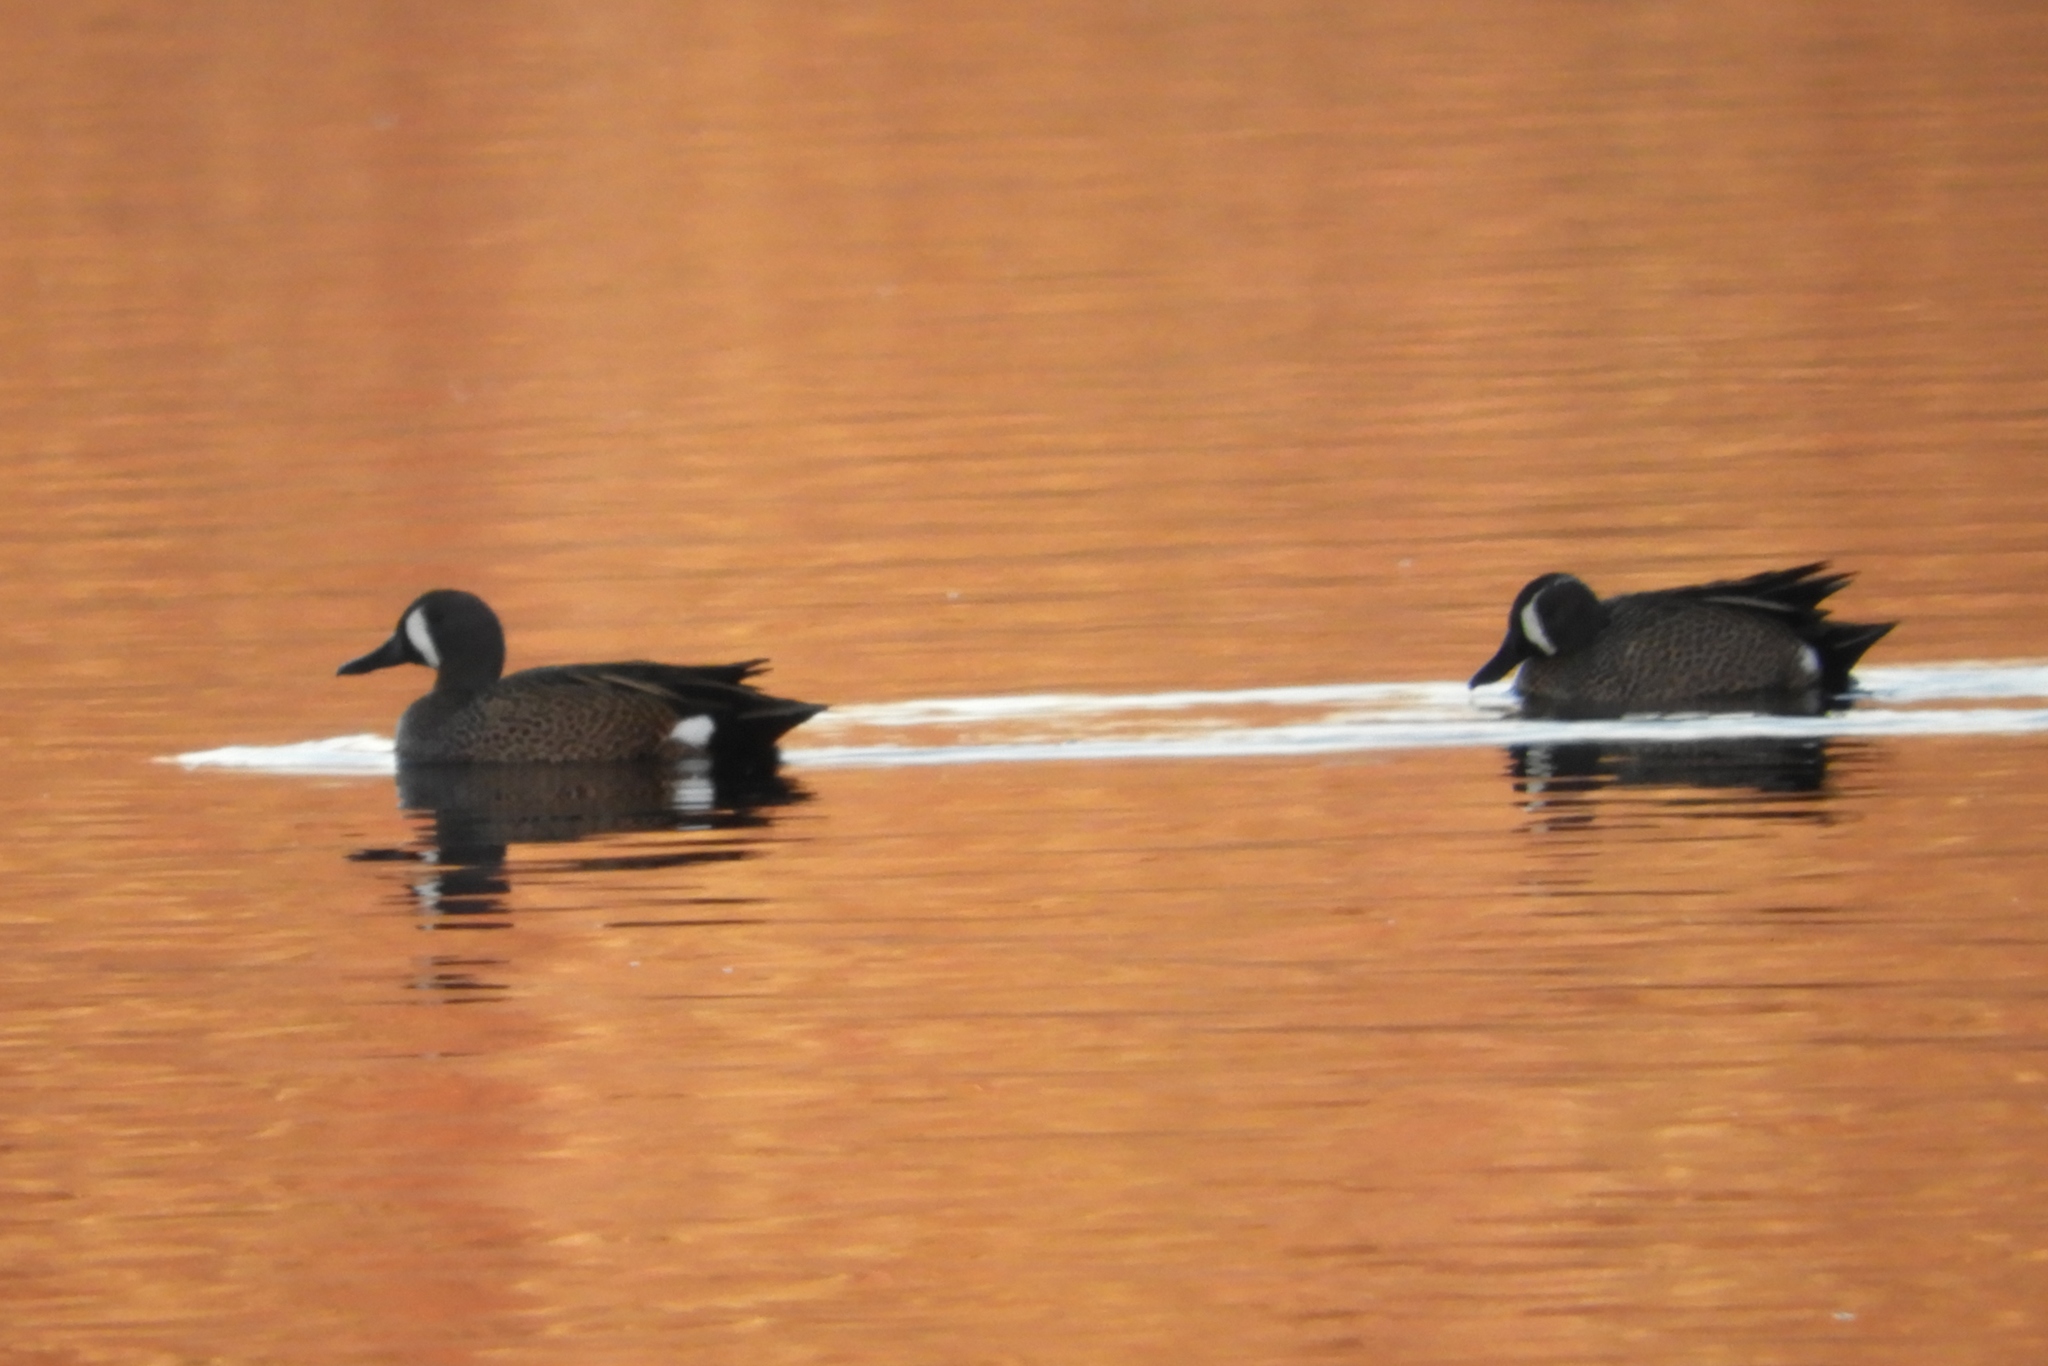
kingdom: Animalia
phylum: Chordata
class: Aves
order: Anseriformes
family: Anatidae
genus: Spatula
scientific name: Spatula discors
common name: Blue-winged teal
